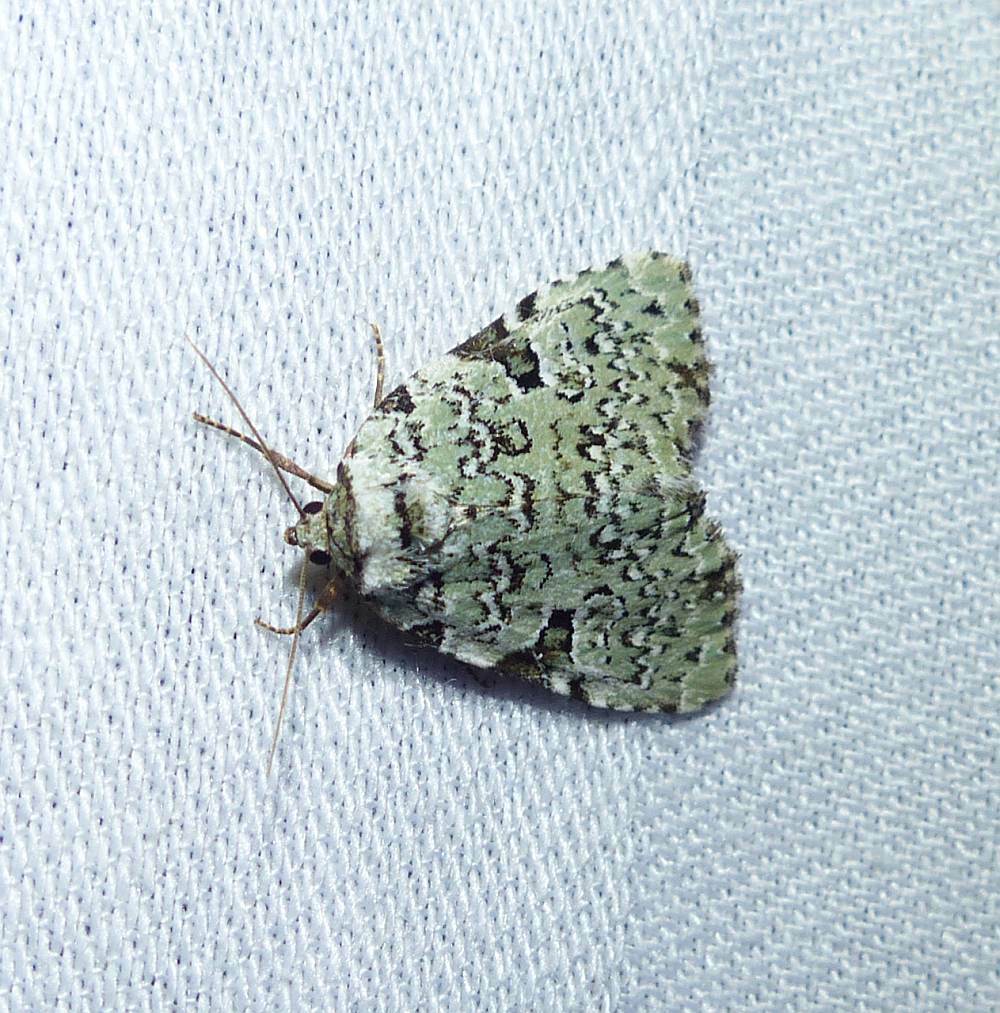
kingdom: Animalia
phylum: Arthropoda
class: Insecta
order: Lepidoptera
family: Noctuidae
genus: Leuconycta
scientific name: Leuconycta diphteroides
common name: Green leuconycta moth
